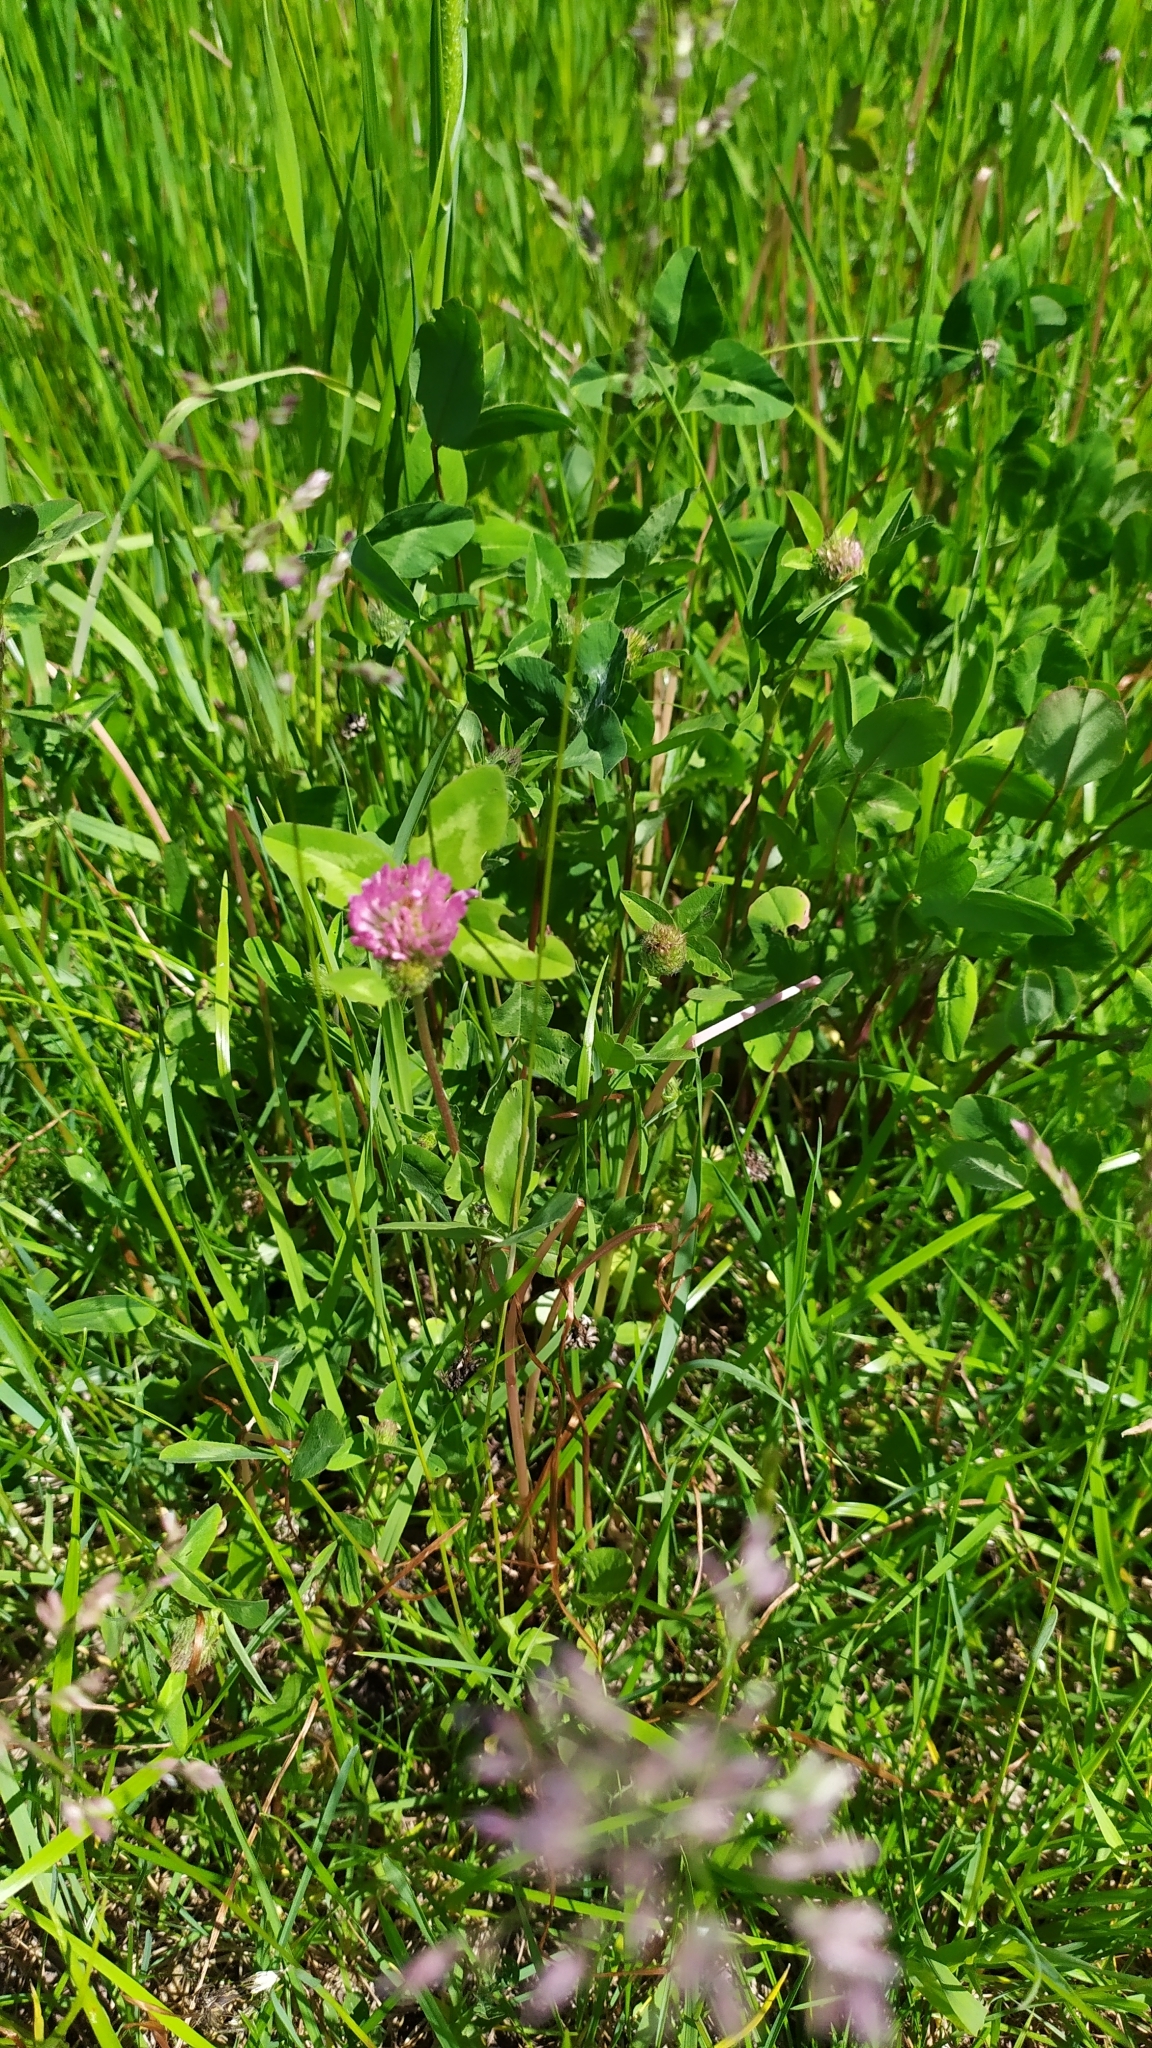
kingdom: Plantae
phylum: Tracheophyta
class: Magnoliopsida
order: Fabales
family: Fabaceae
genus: Trifolium
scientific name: Trifolium pratense
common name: Red clover
